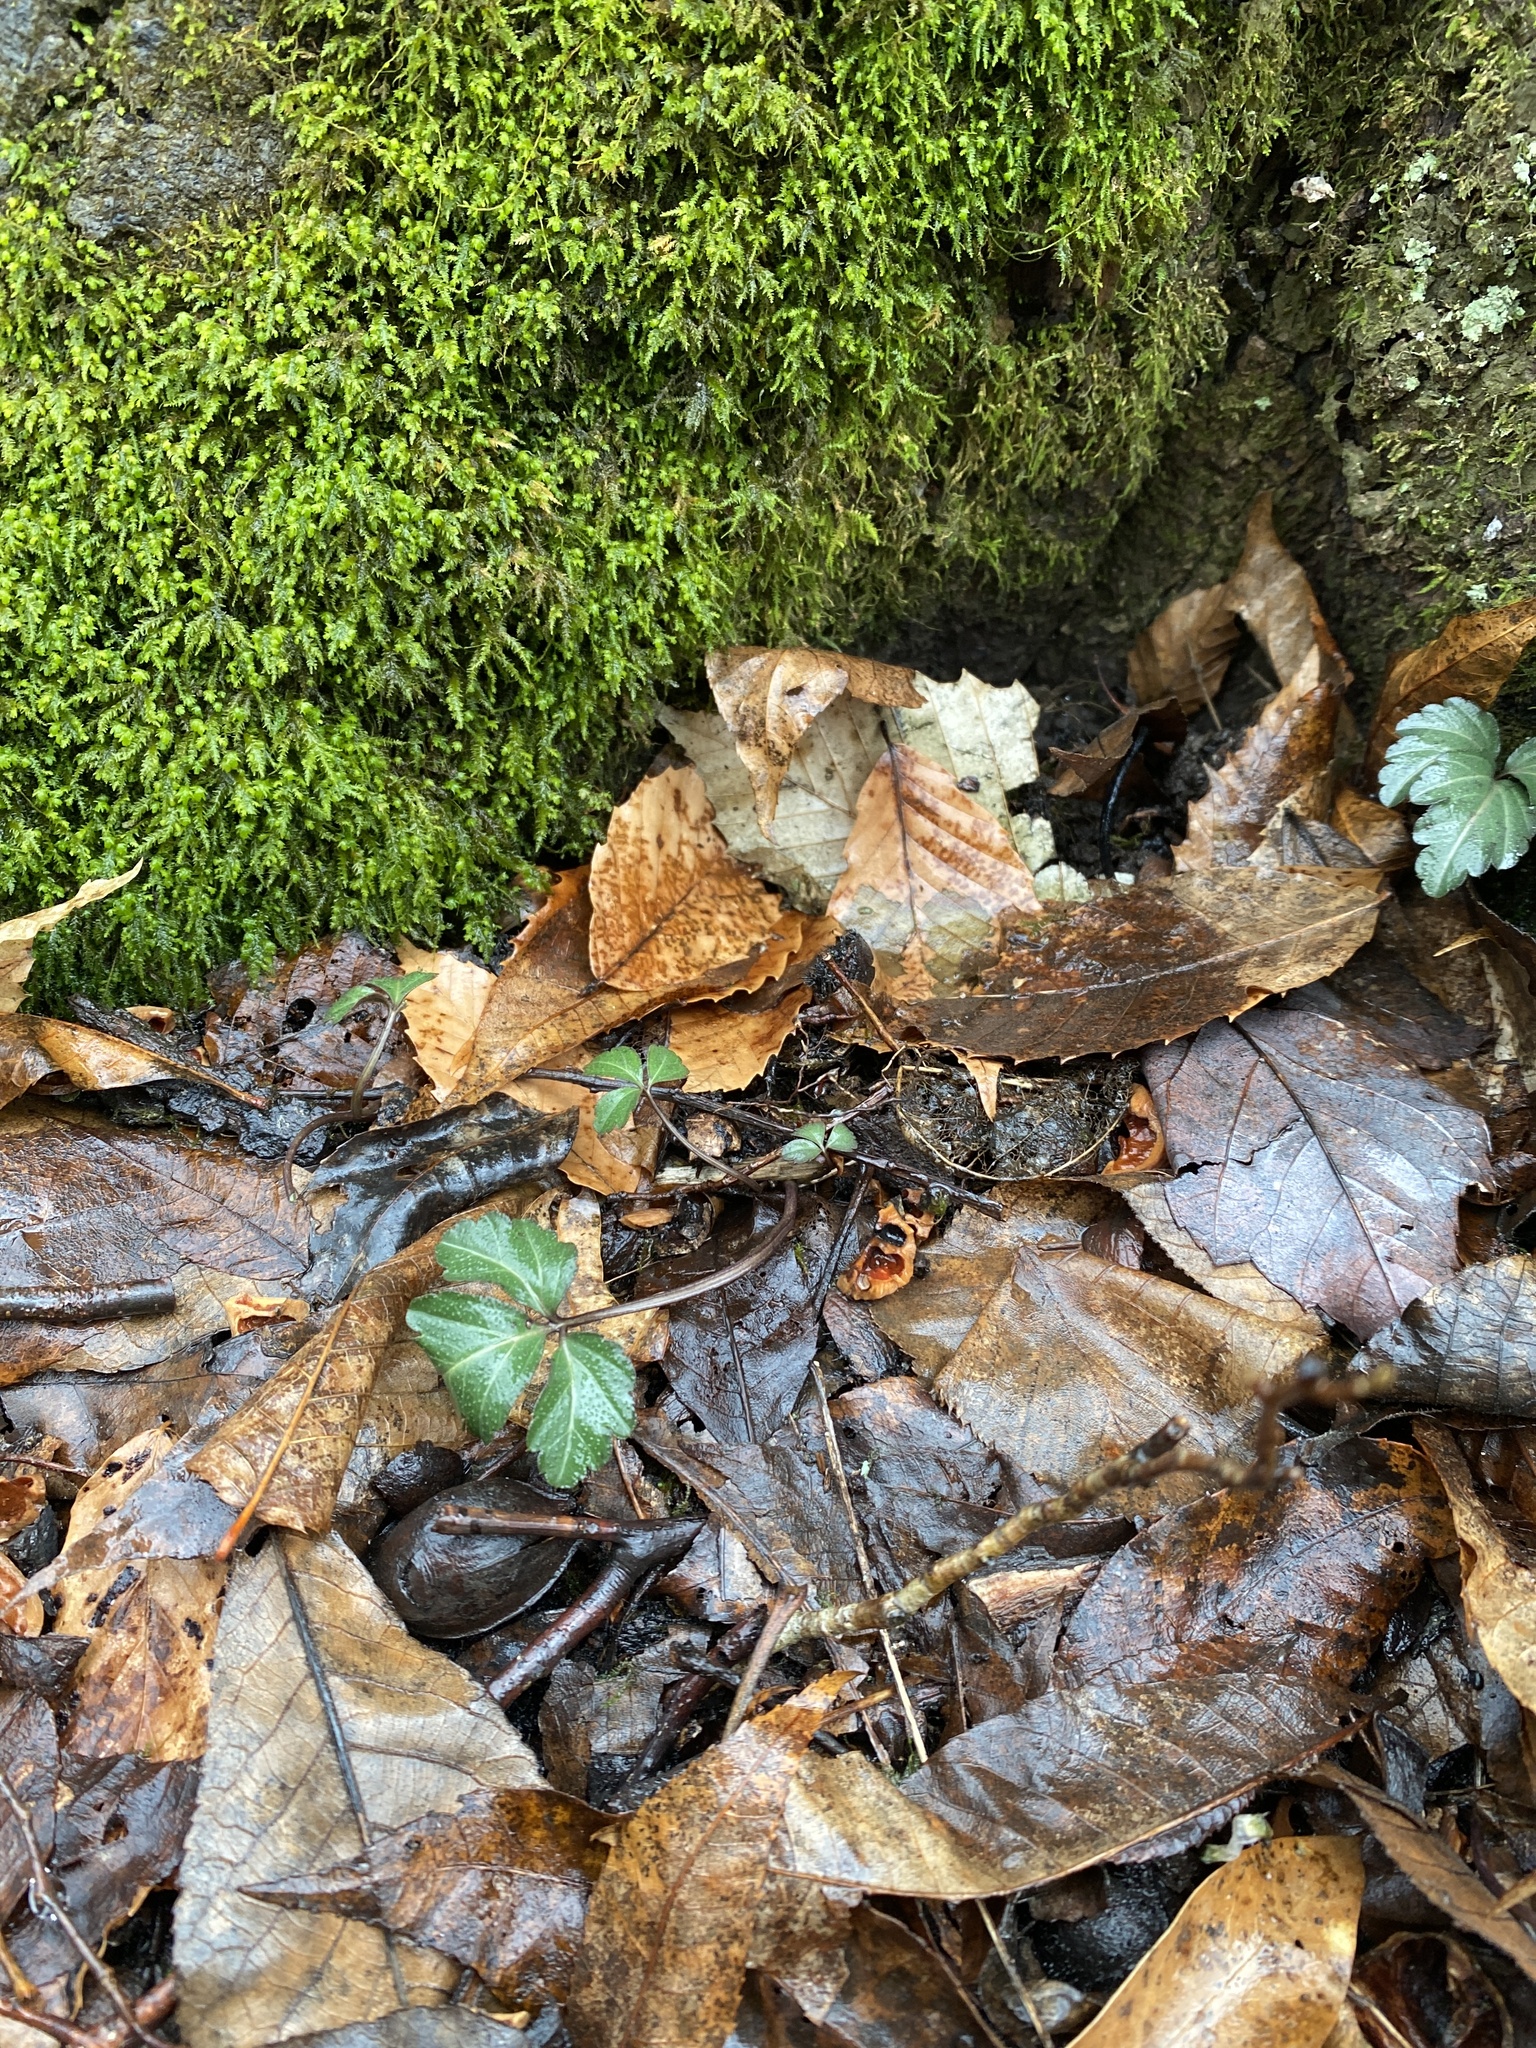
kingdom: Plantae
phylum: Tracheophyta
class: Magnoliopsida
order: Brassicales
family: Brassicaceae
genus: Cardamine
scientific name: Cardamine angustata
